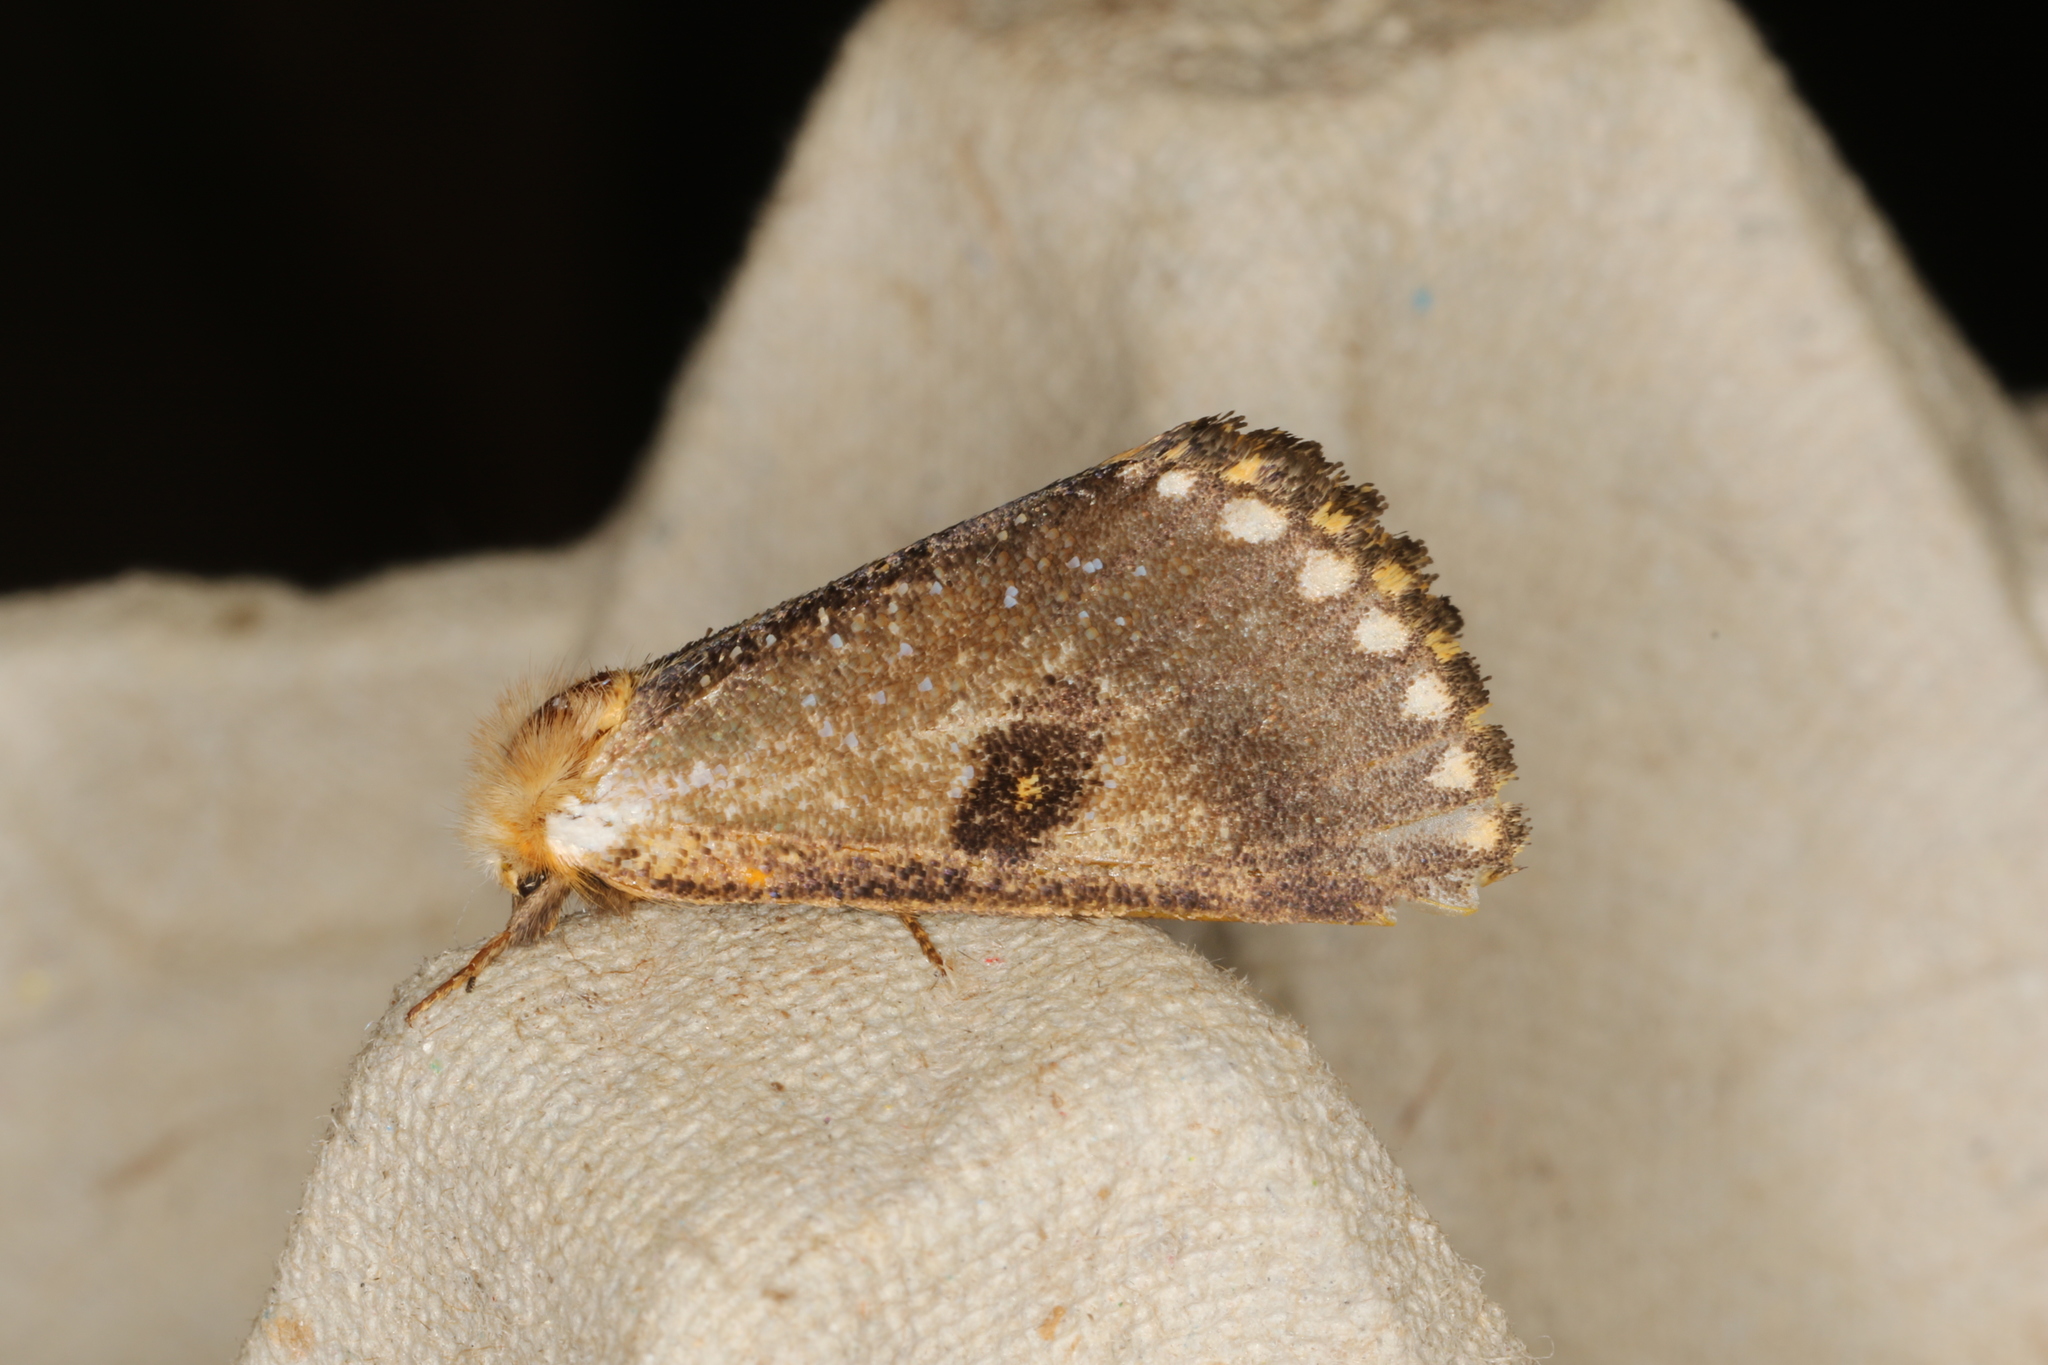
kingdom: Animalia
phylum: Arthropoda
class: Insecta
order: Lepidoptera
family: Notodontidae
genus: Epicoma
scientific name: Epicoma contristis
